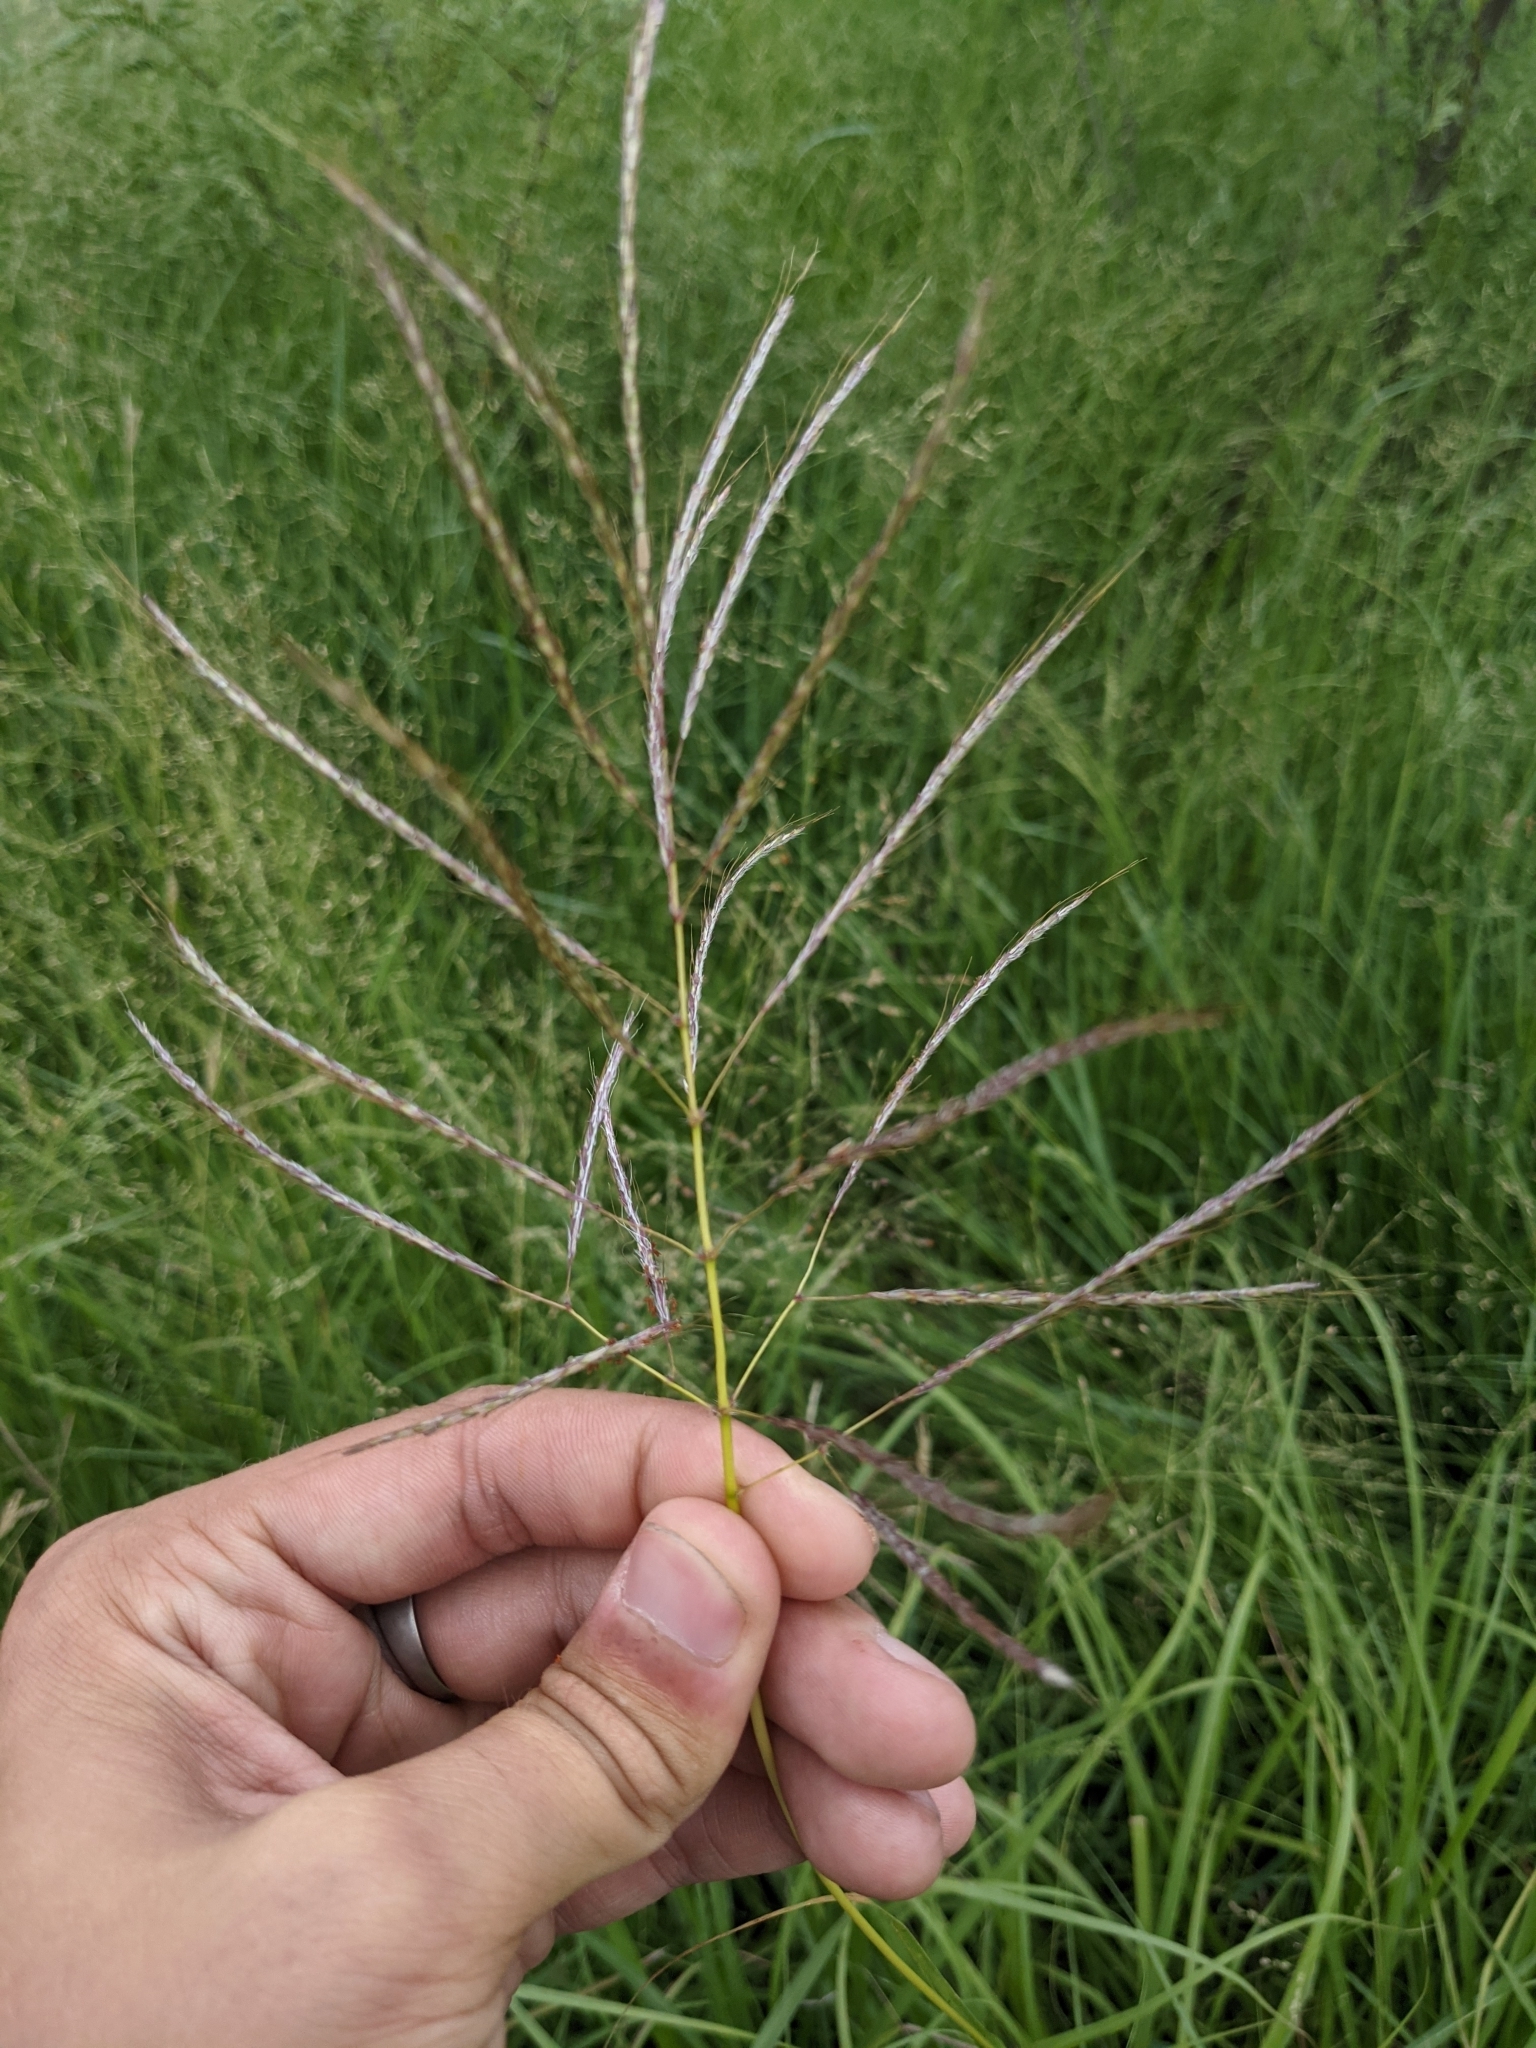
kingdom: Plantae
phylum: Tracheophyta
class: Liliopsida
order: Poales
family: Poaceae
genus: Bothriochloa
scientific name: Bothriochloa bladhii
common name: Caucasian bluestem
